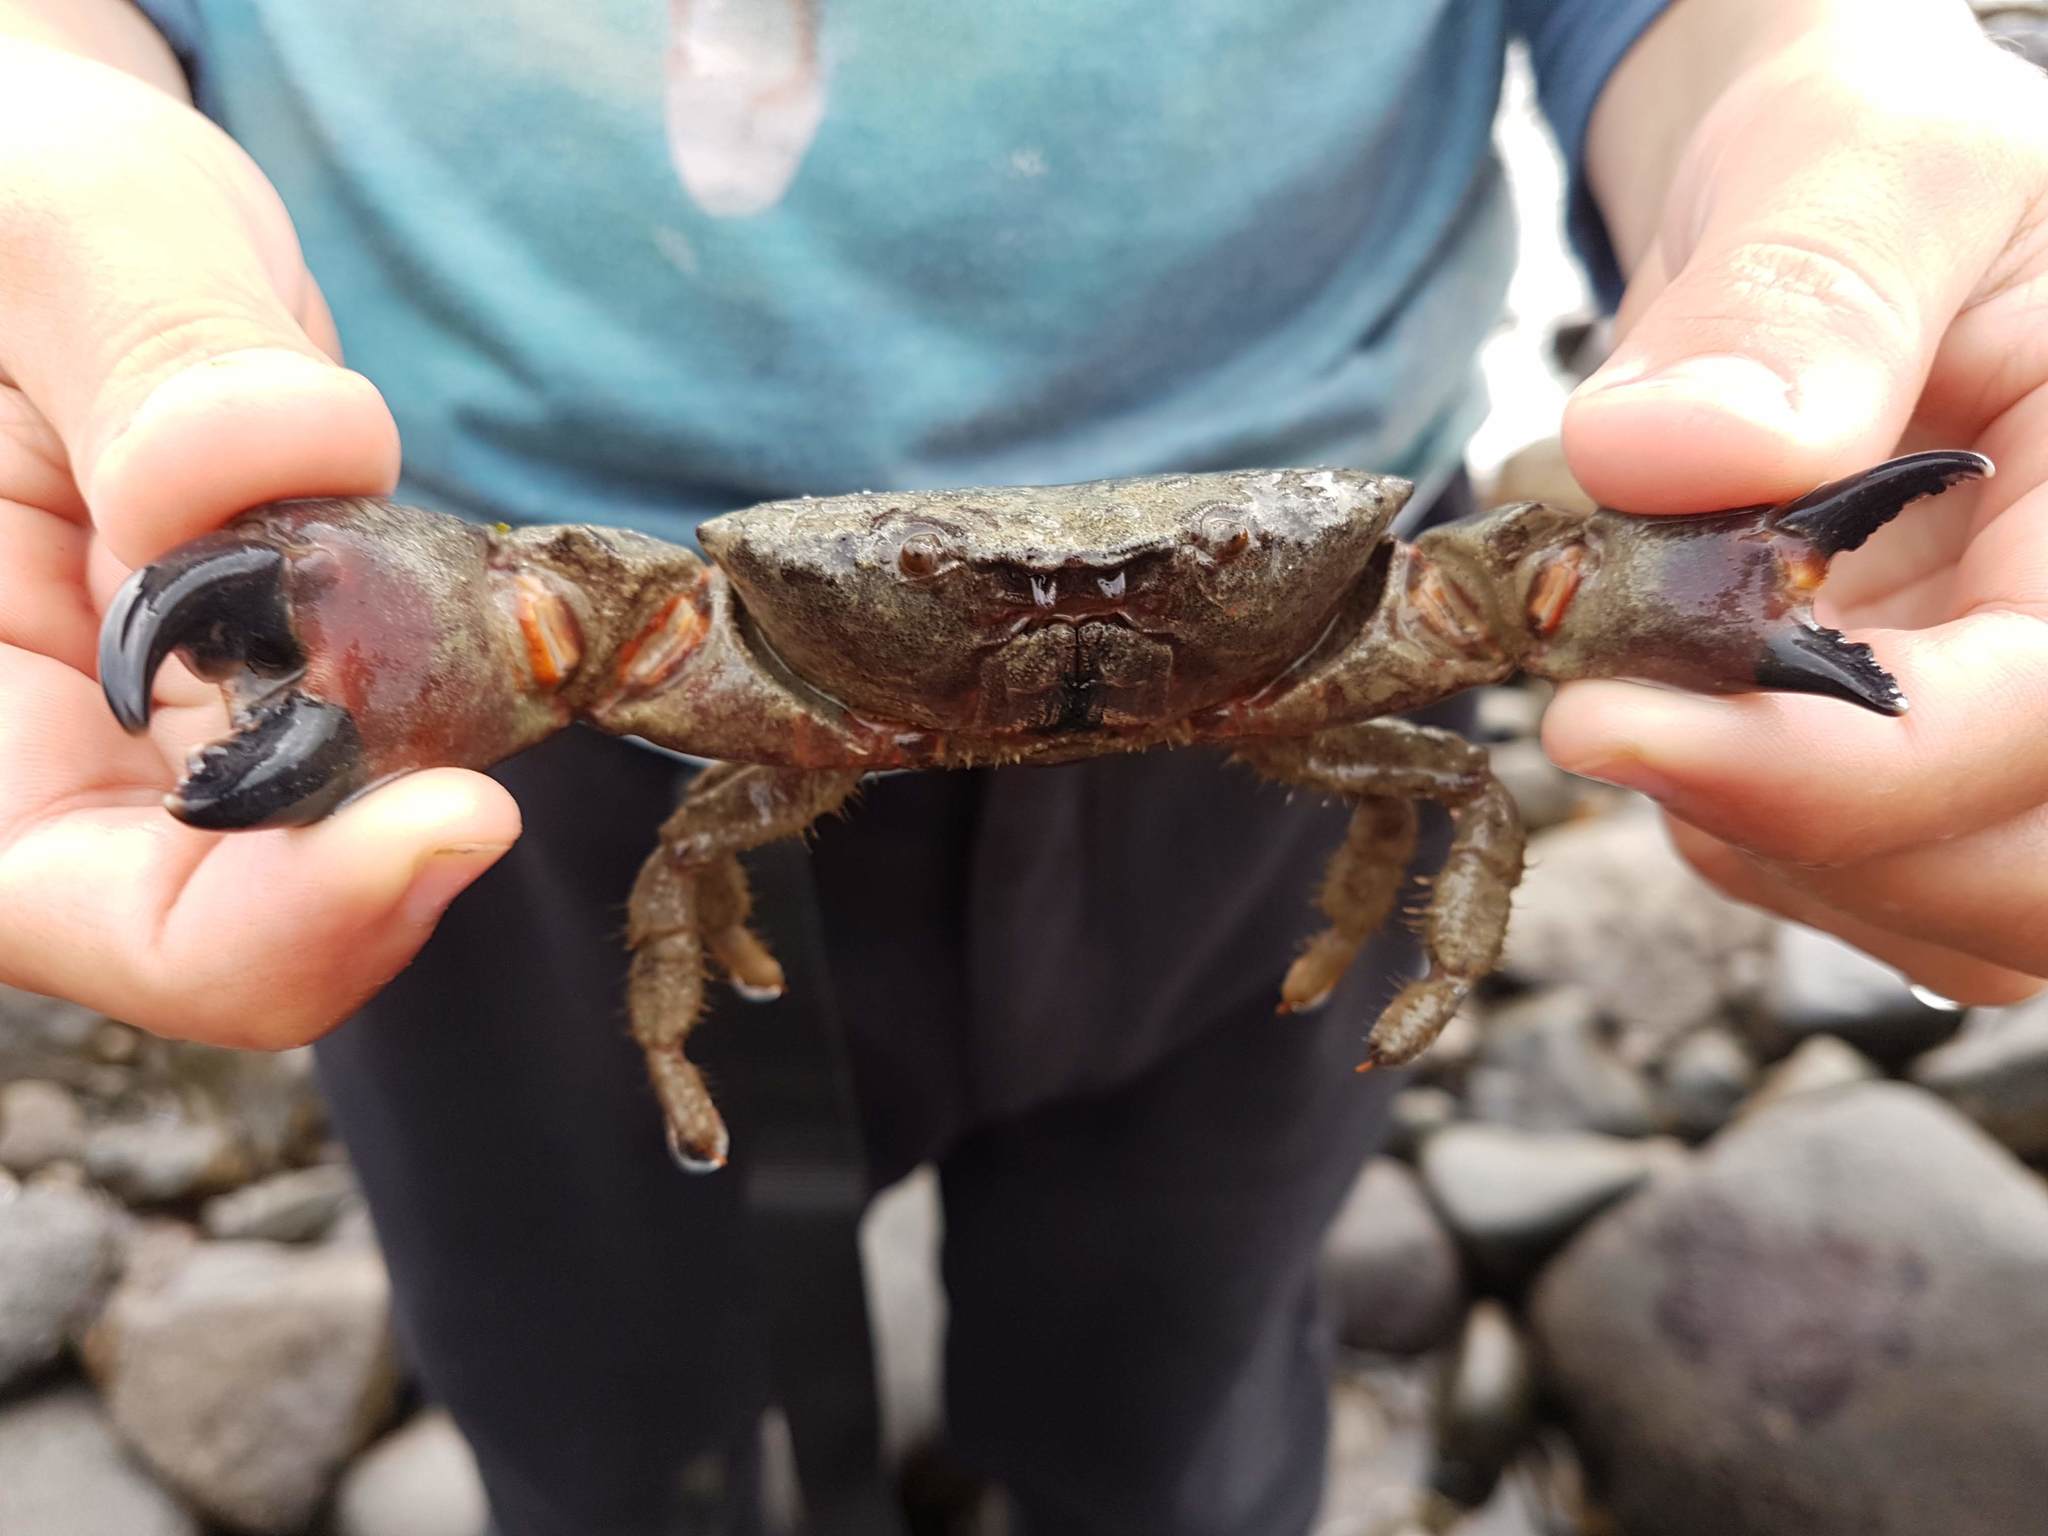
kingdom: Animalia
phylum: Arthropoda
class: Malacostraca
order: Decapoda
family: Oziidae
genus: Ozius
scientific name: Ozius deplanatus
